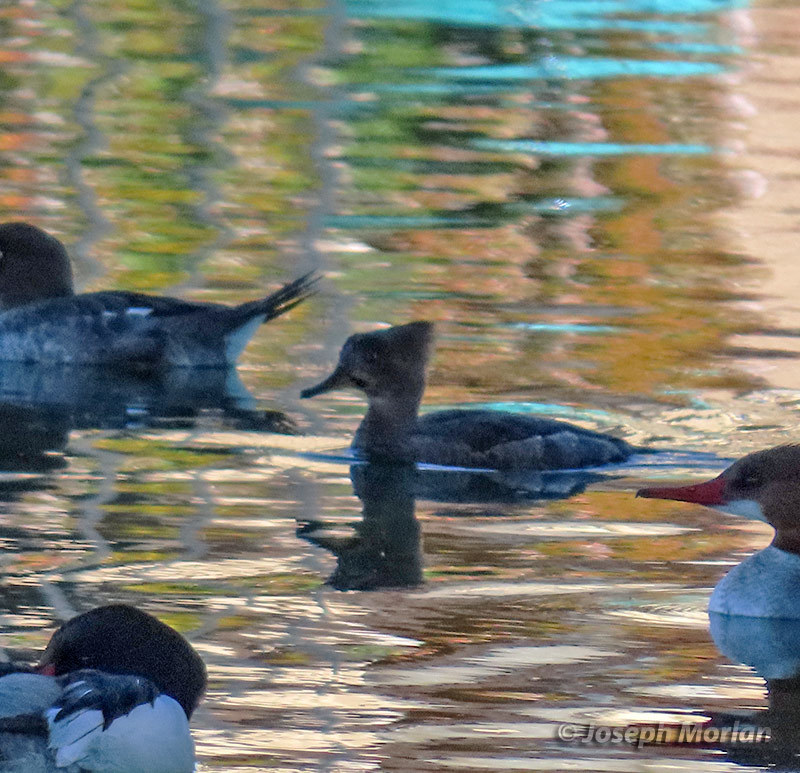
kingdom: Animalia
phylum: Chordata
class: Aves
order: Anseriformes
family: Anatidae
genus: Lophodytes
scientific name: Lophodytes cucullatus
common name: Hooded merganser
